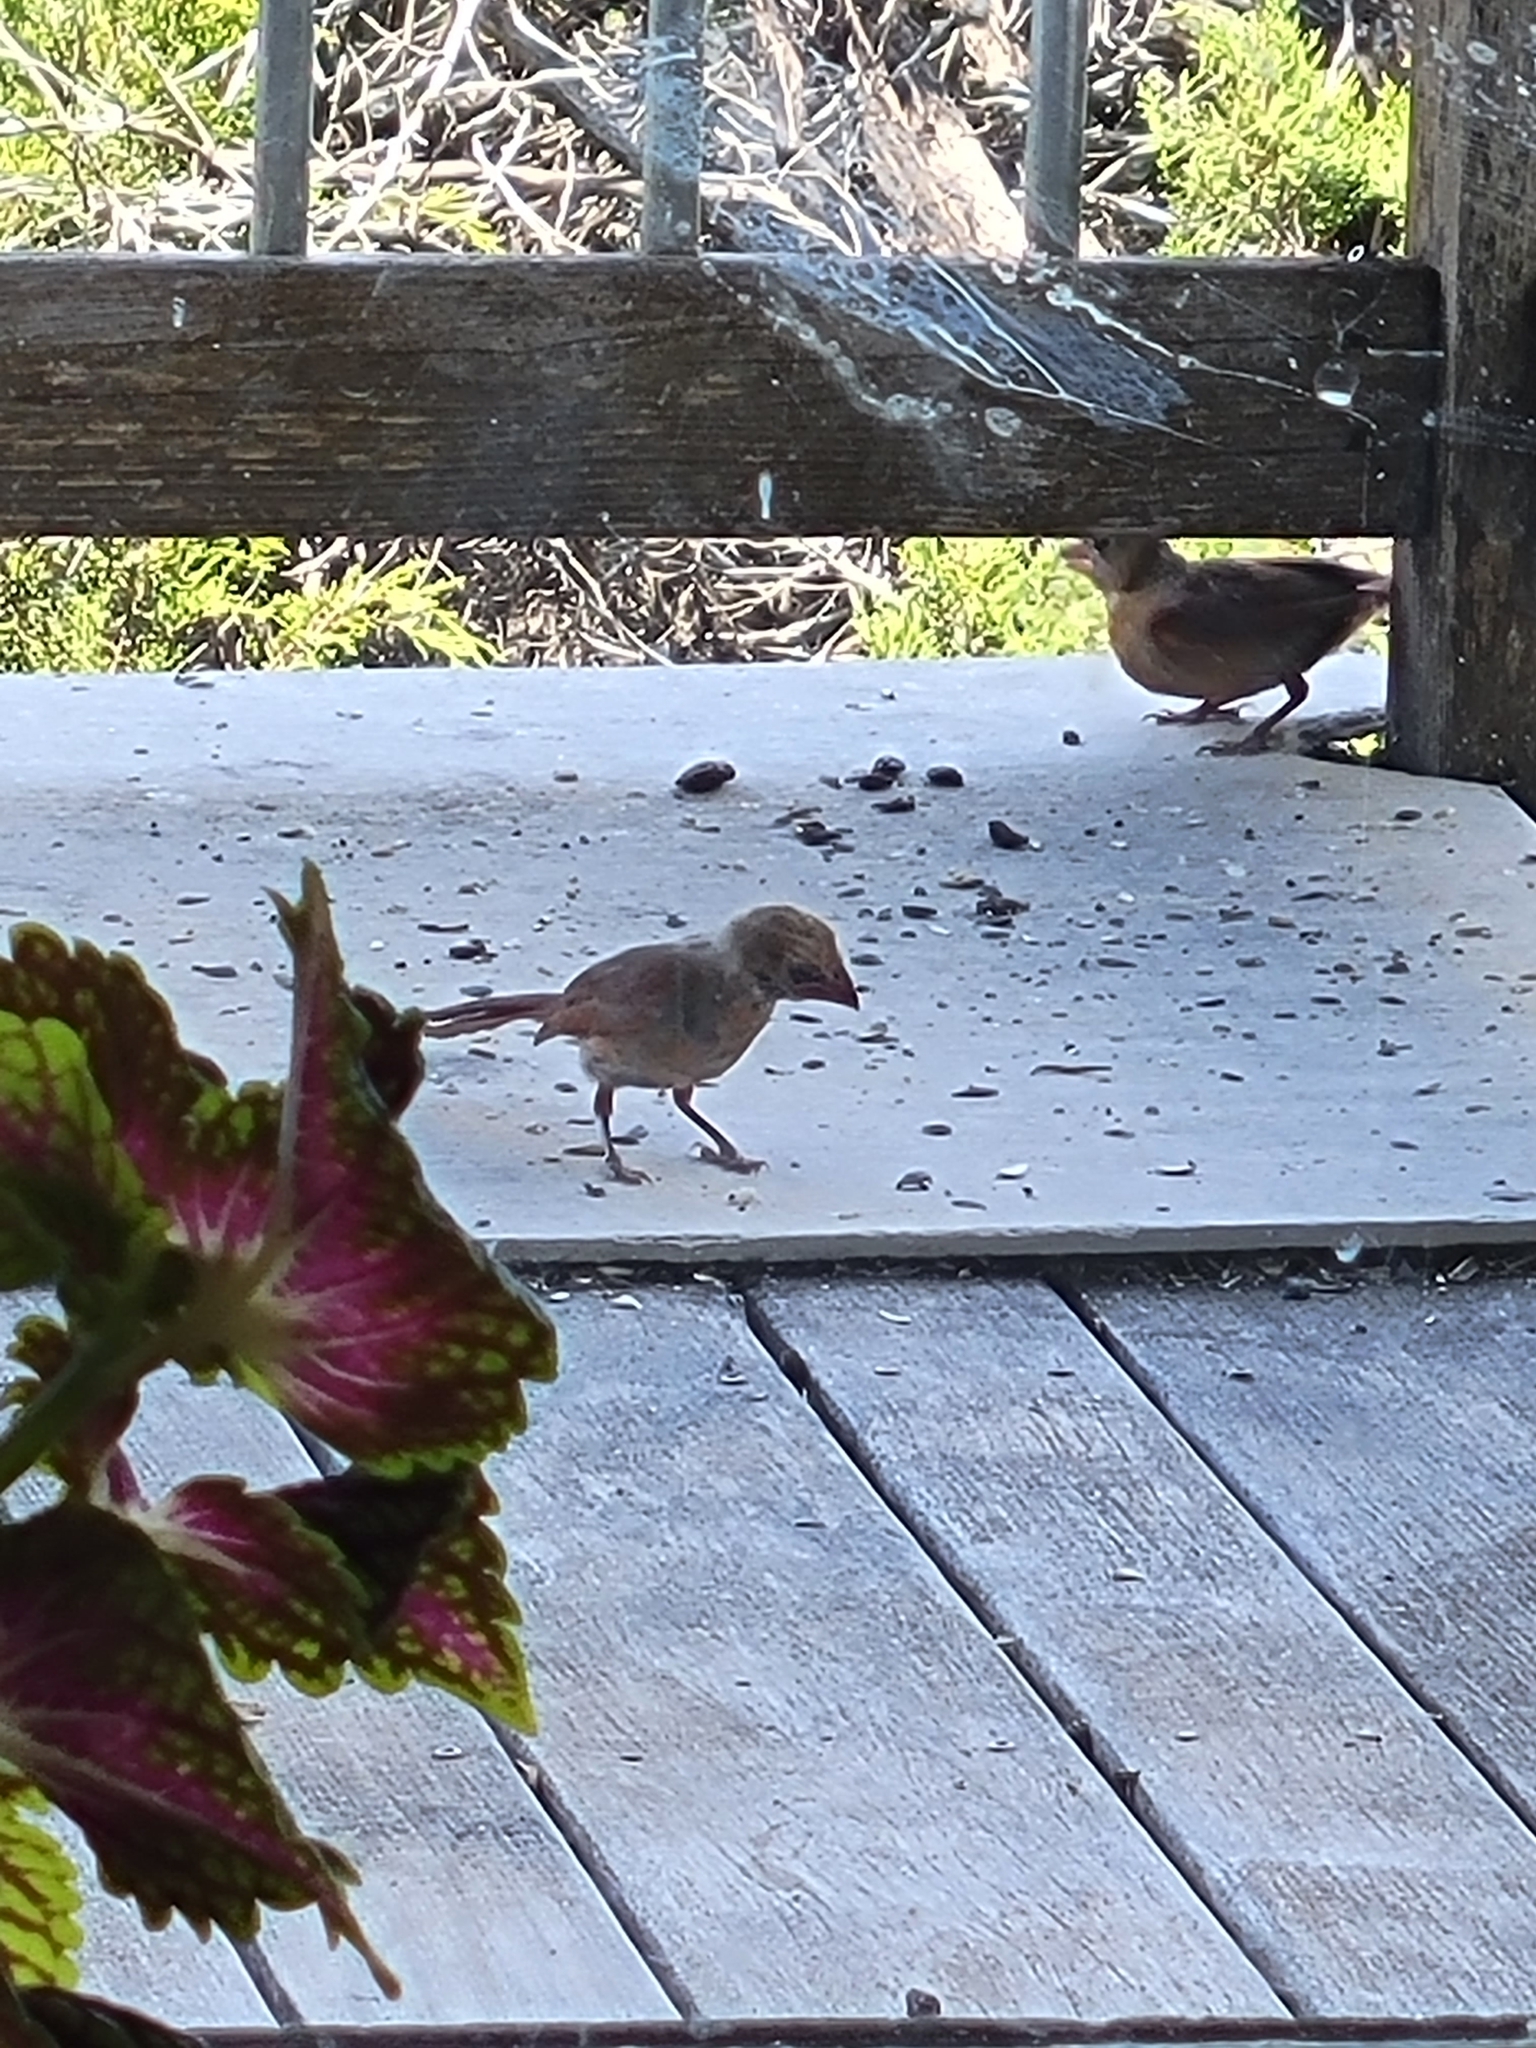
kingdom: Animalia
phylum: Chordata
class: Aves
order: Passeriformes
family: Cardinalidae
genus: Cardinalis
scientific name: Cardinalis cardinalis
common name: Northern cardinal
